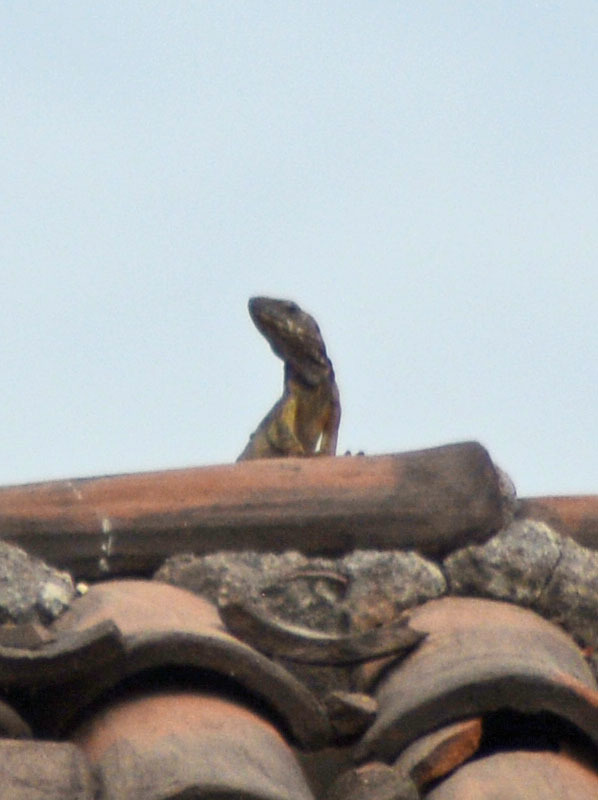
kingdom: Animalia
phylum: Chordata
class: Squamata
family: Iguanidae
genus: Ctenosaura
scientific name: Ctenosaura pectinata
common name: Guerreran spiny-tailed iguana
